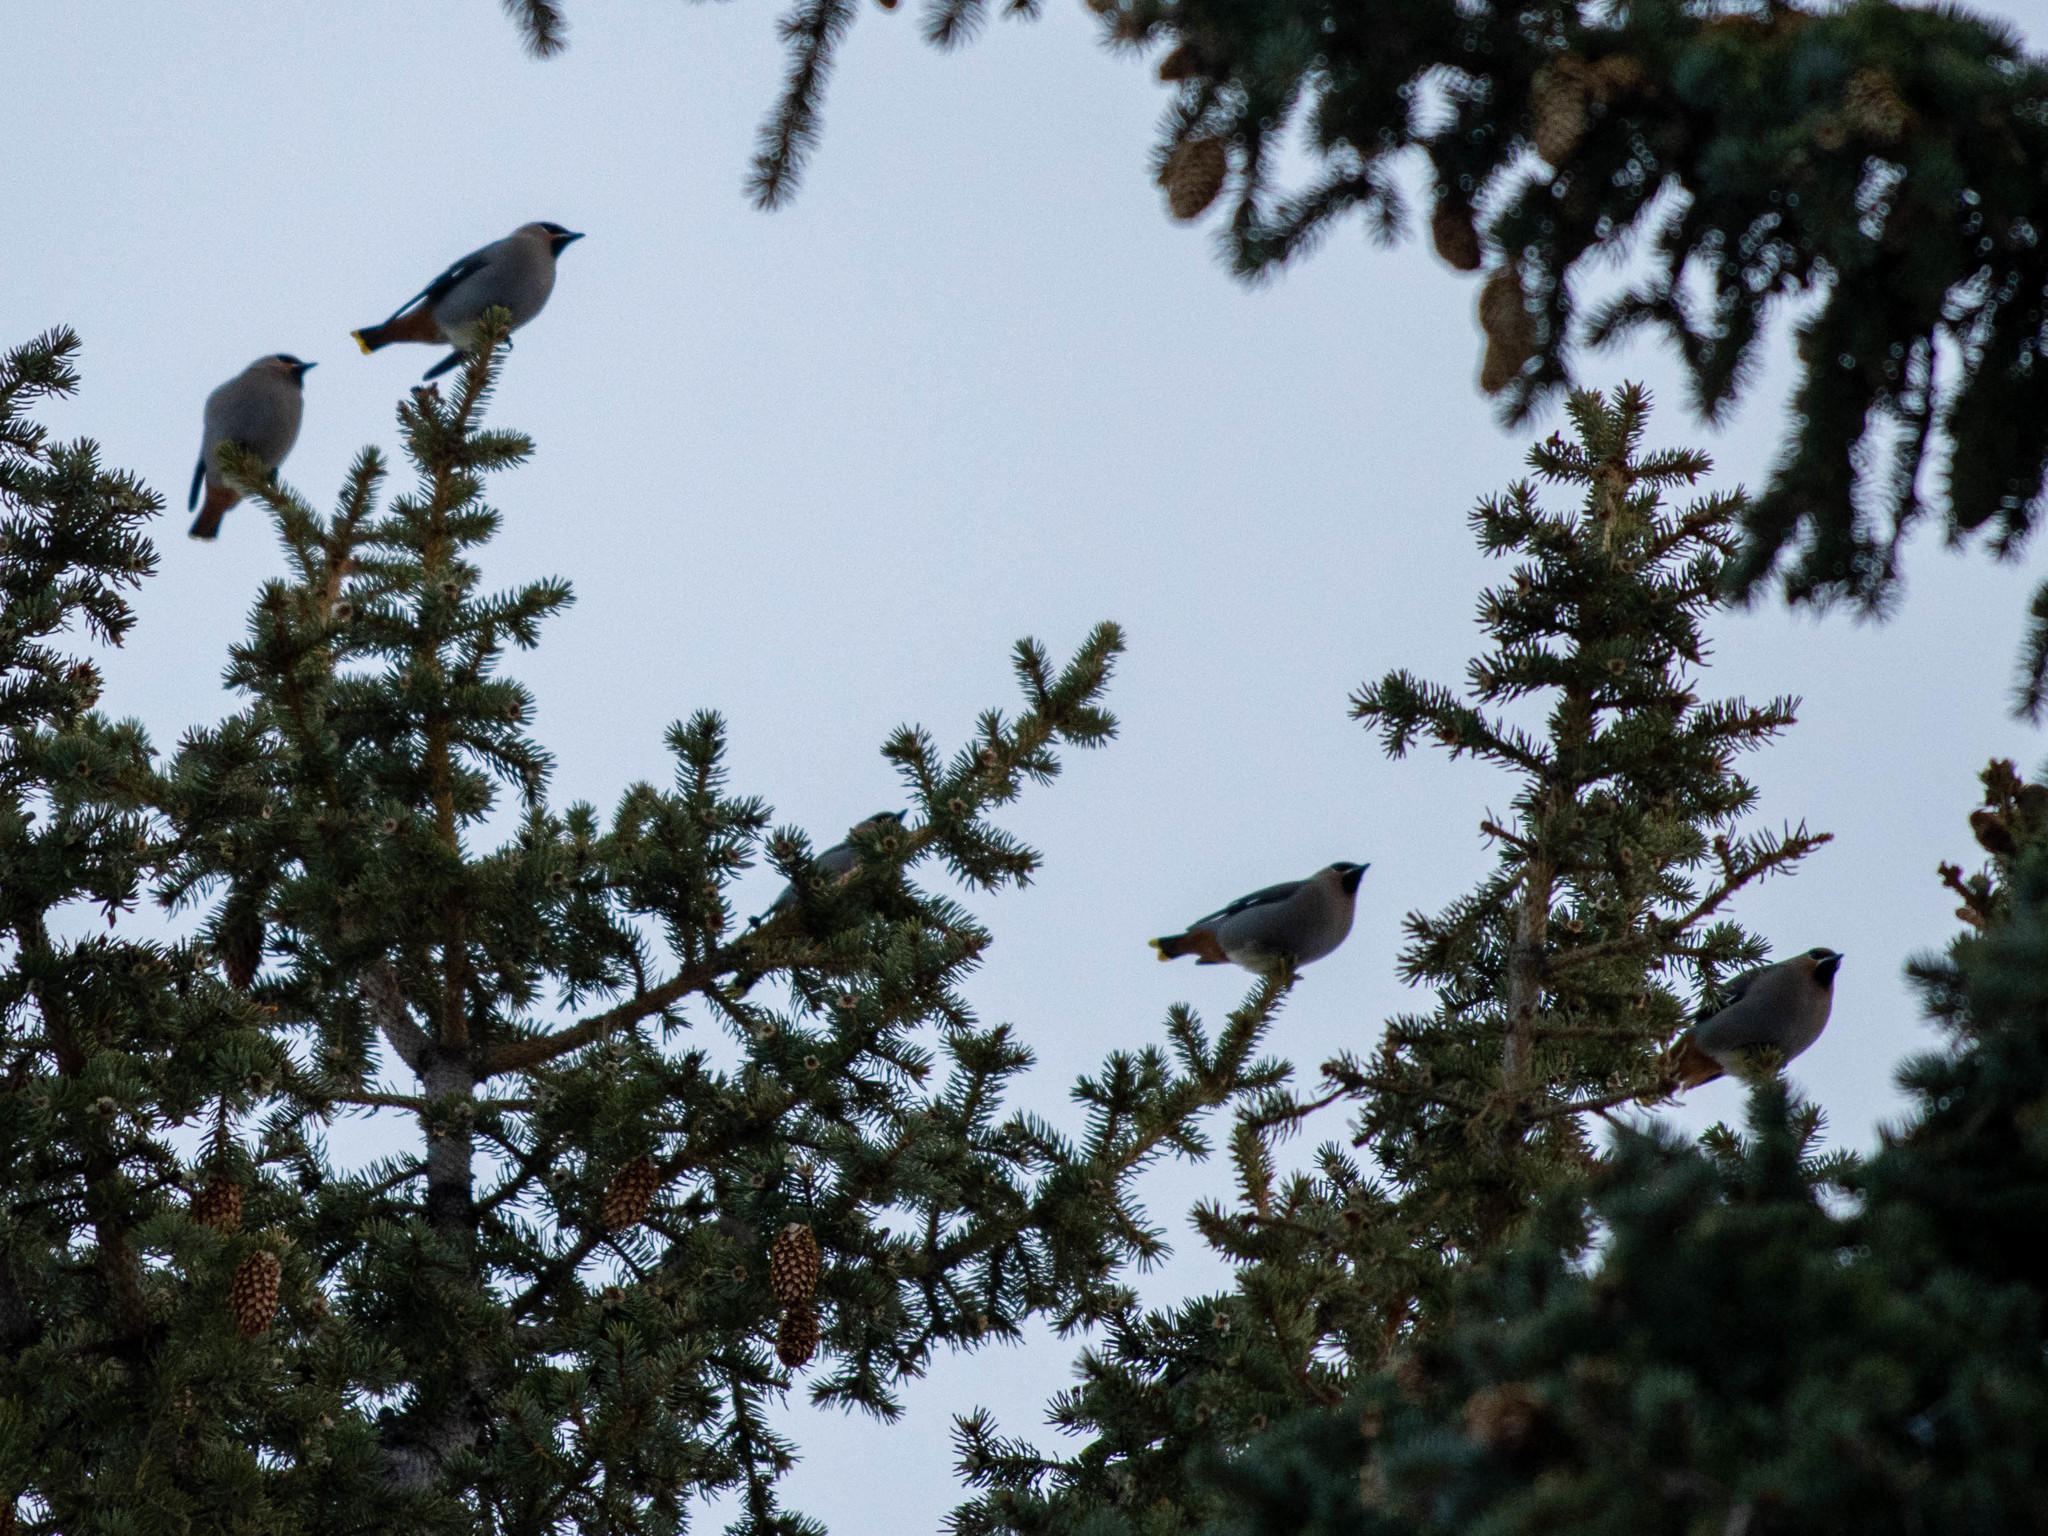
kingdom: Animalia
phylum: Chordata
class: Aves
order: Passeriformes
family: Bombycillidae
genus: Bombycilla
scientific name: Bombycilla garrulus
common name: Bohemian waxwing
